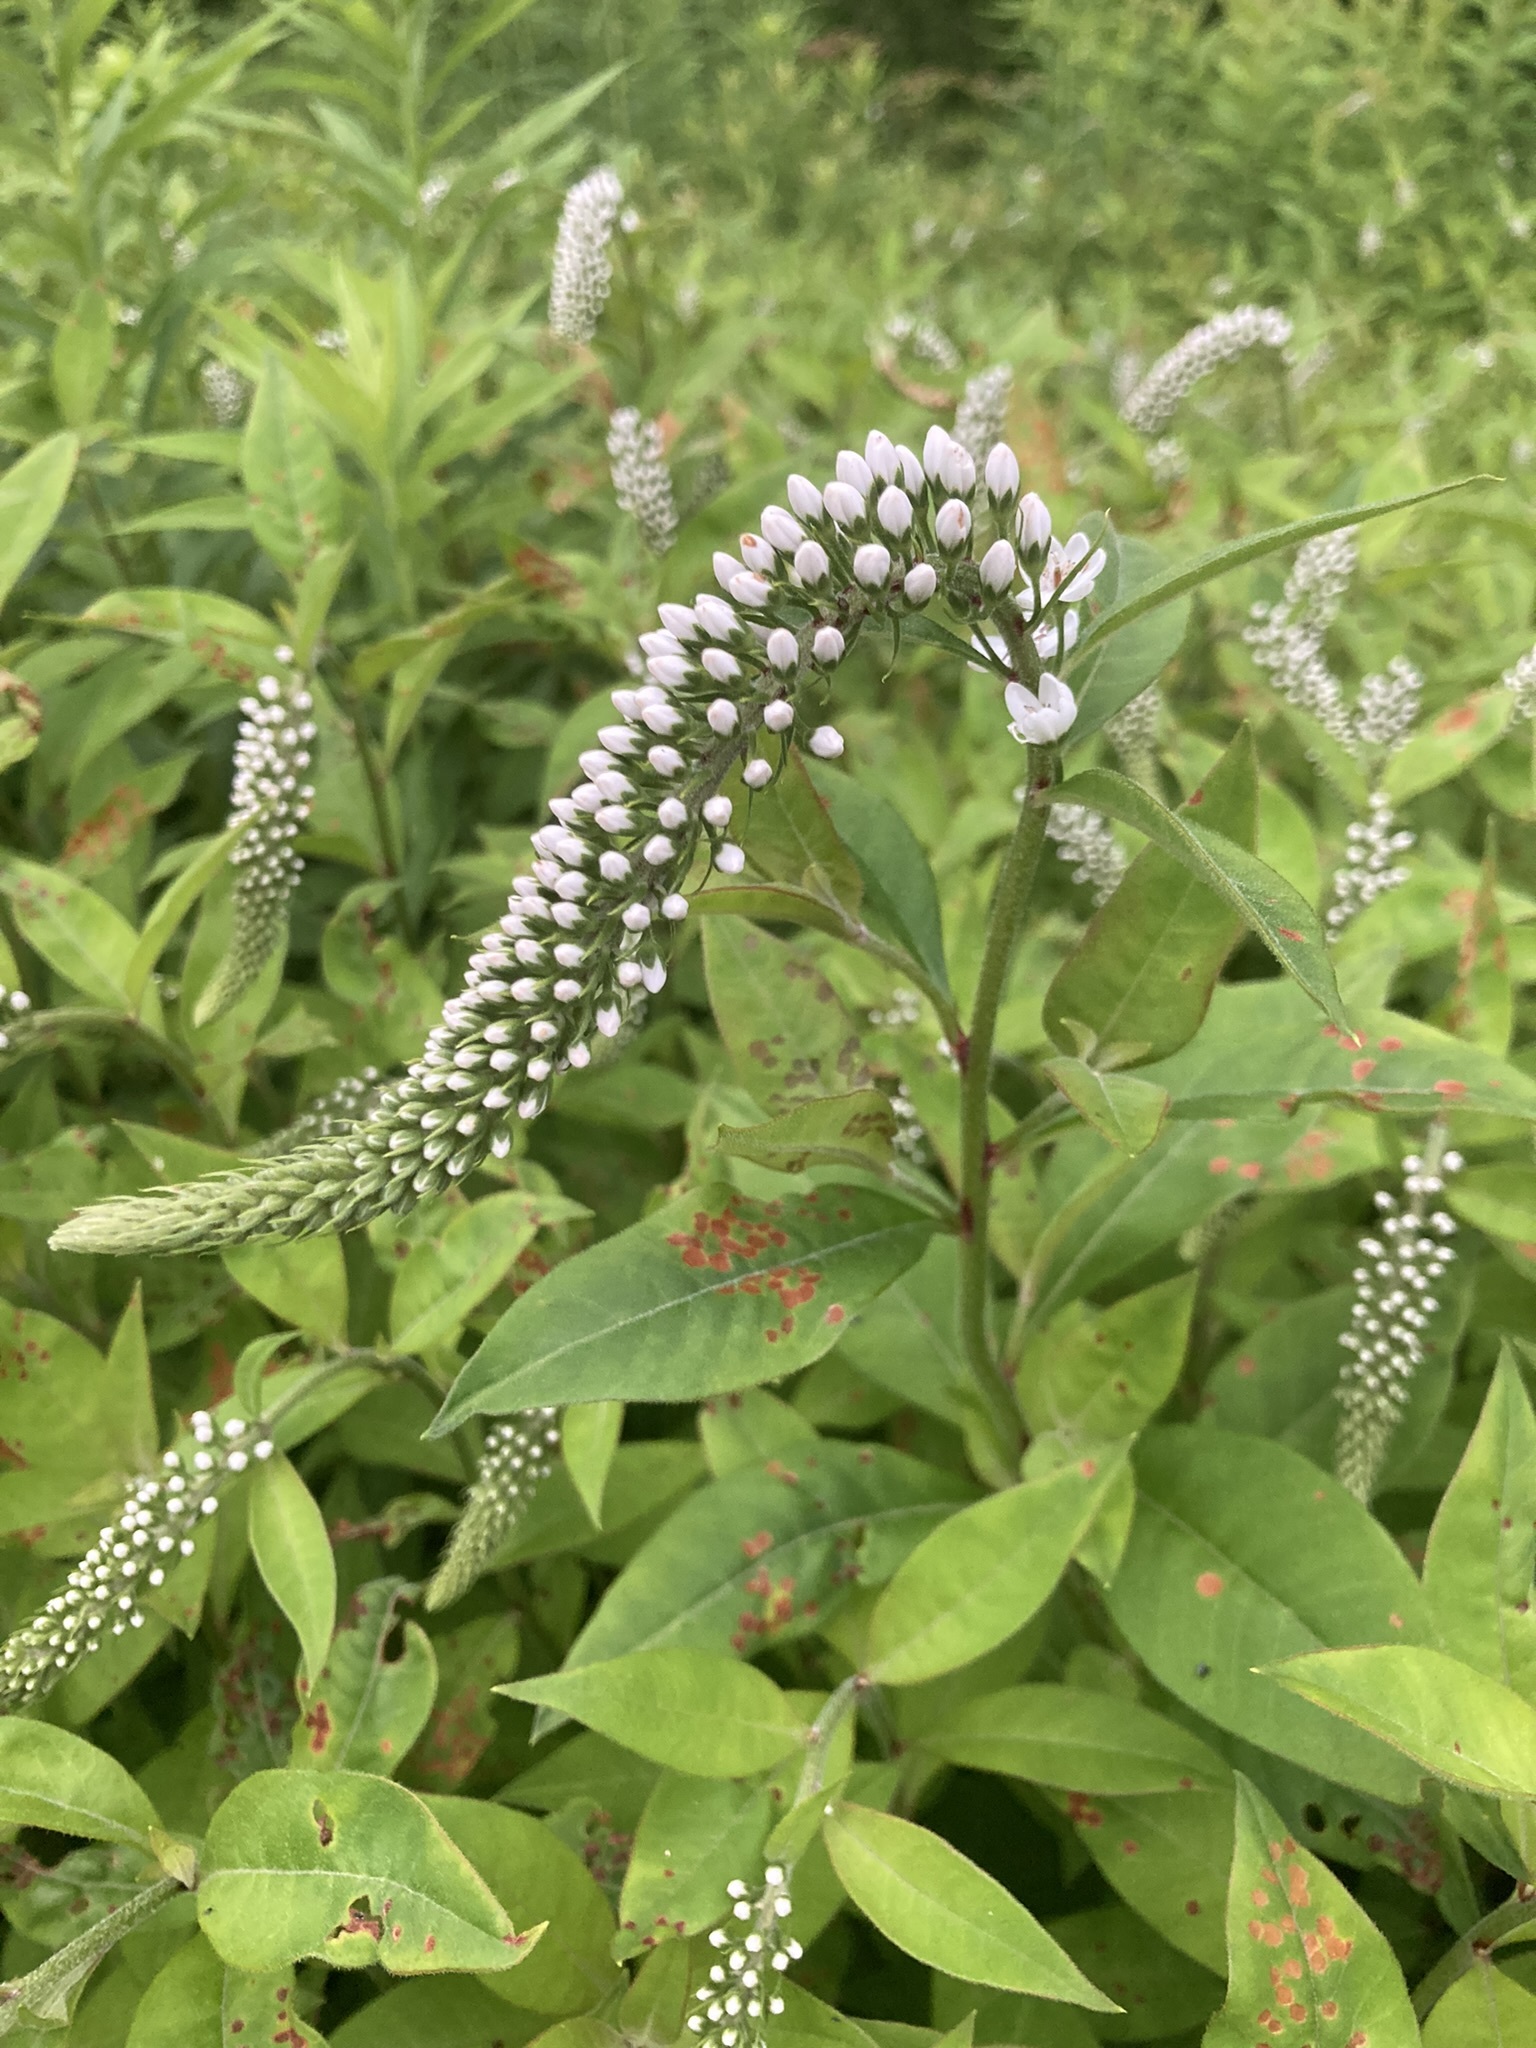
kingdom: Plantae
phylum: Tracheophyta
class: Magnoliopsida
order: Ericales
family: Primulaceae
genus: Lysimachia
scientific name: Lysimachia clethroides
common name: Gooseneck loosestrife
